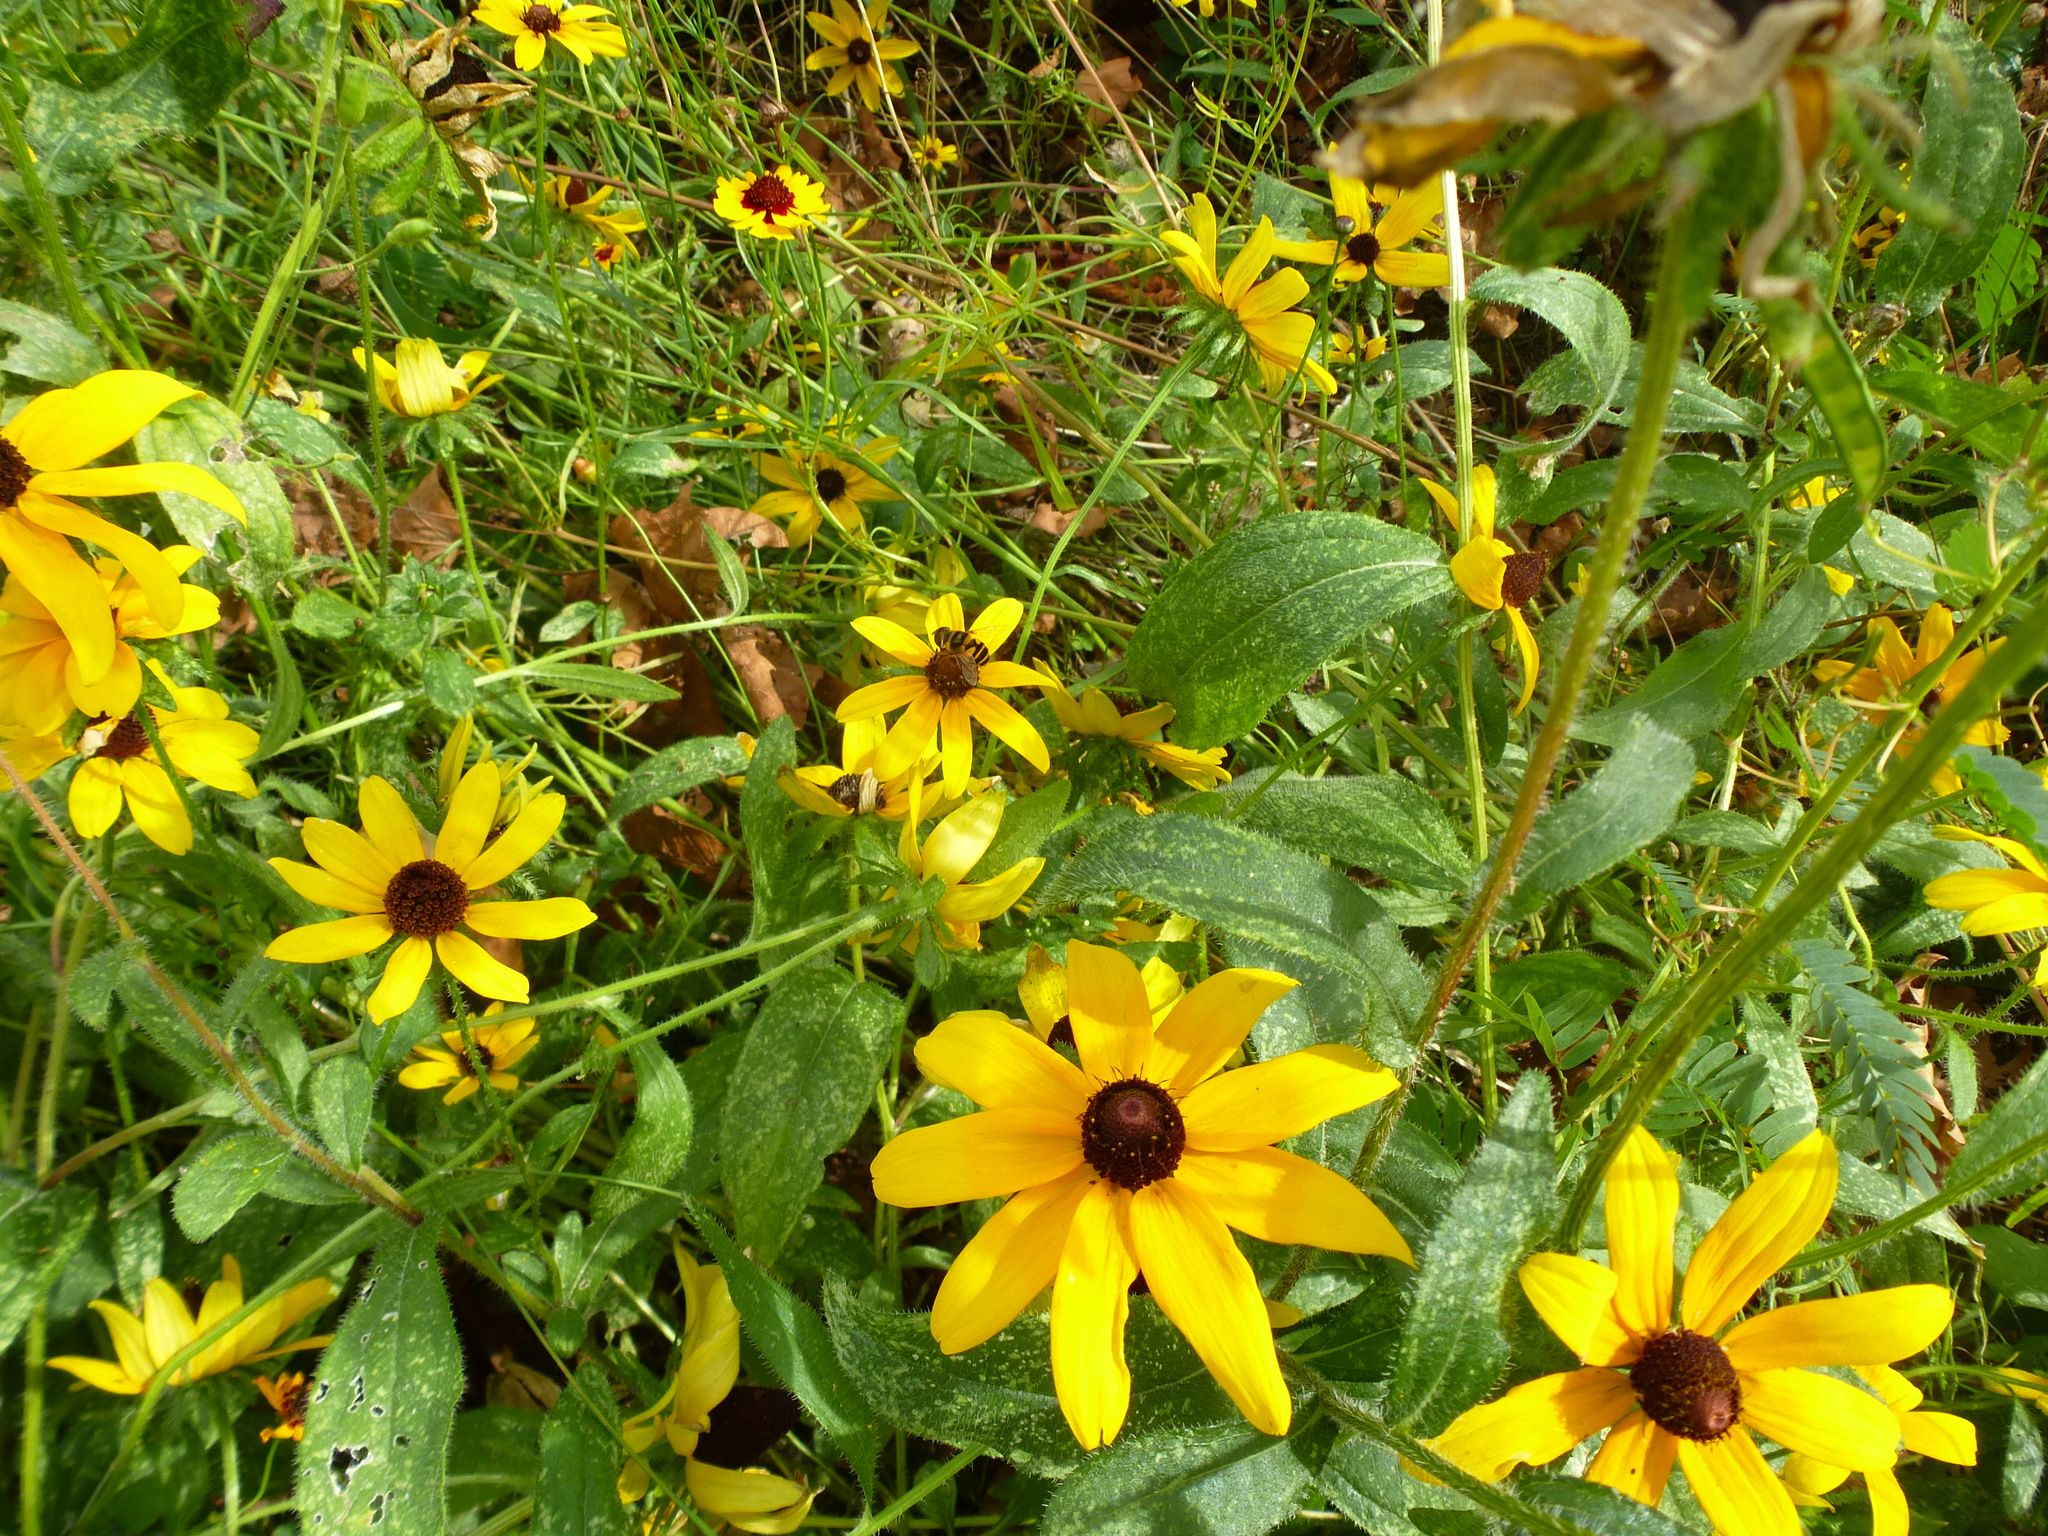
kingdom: Animalia
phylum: Arthropoda
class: Insecta
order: Diptera
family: Syrphidae
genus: Eristalis
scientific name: Eristalis transversa
